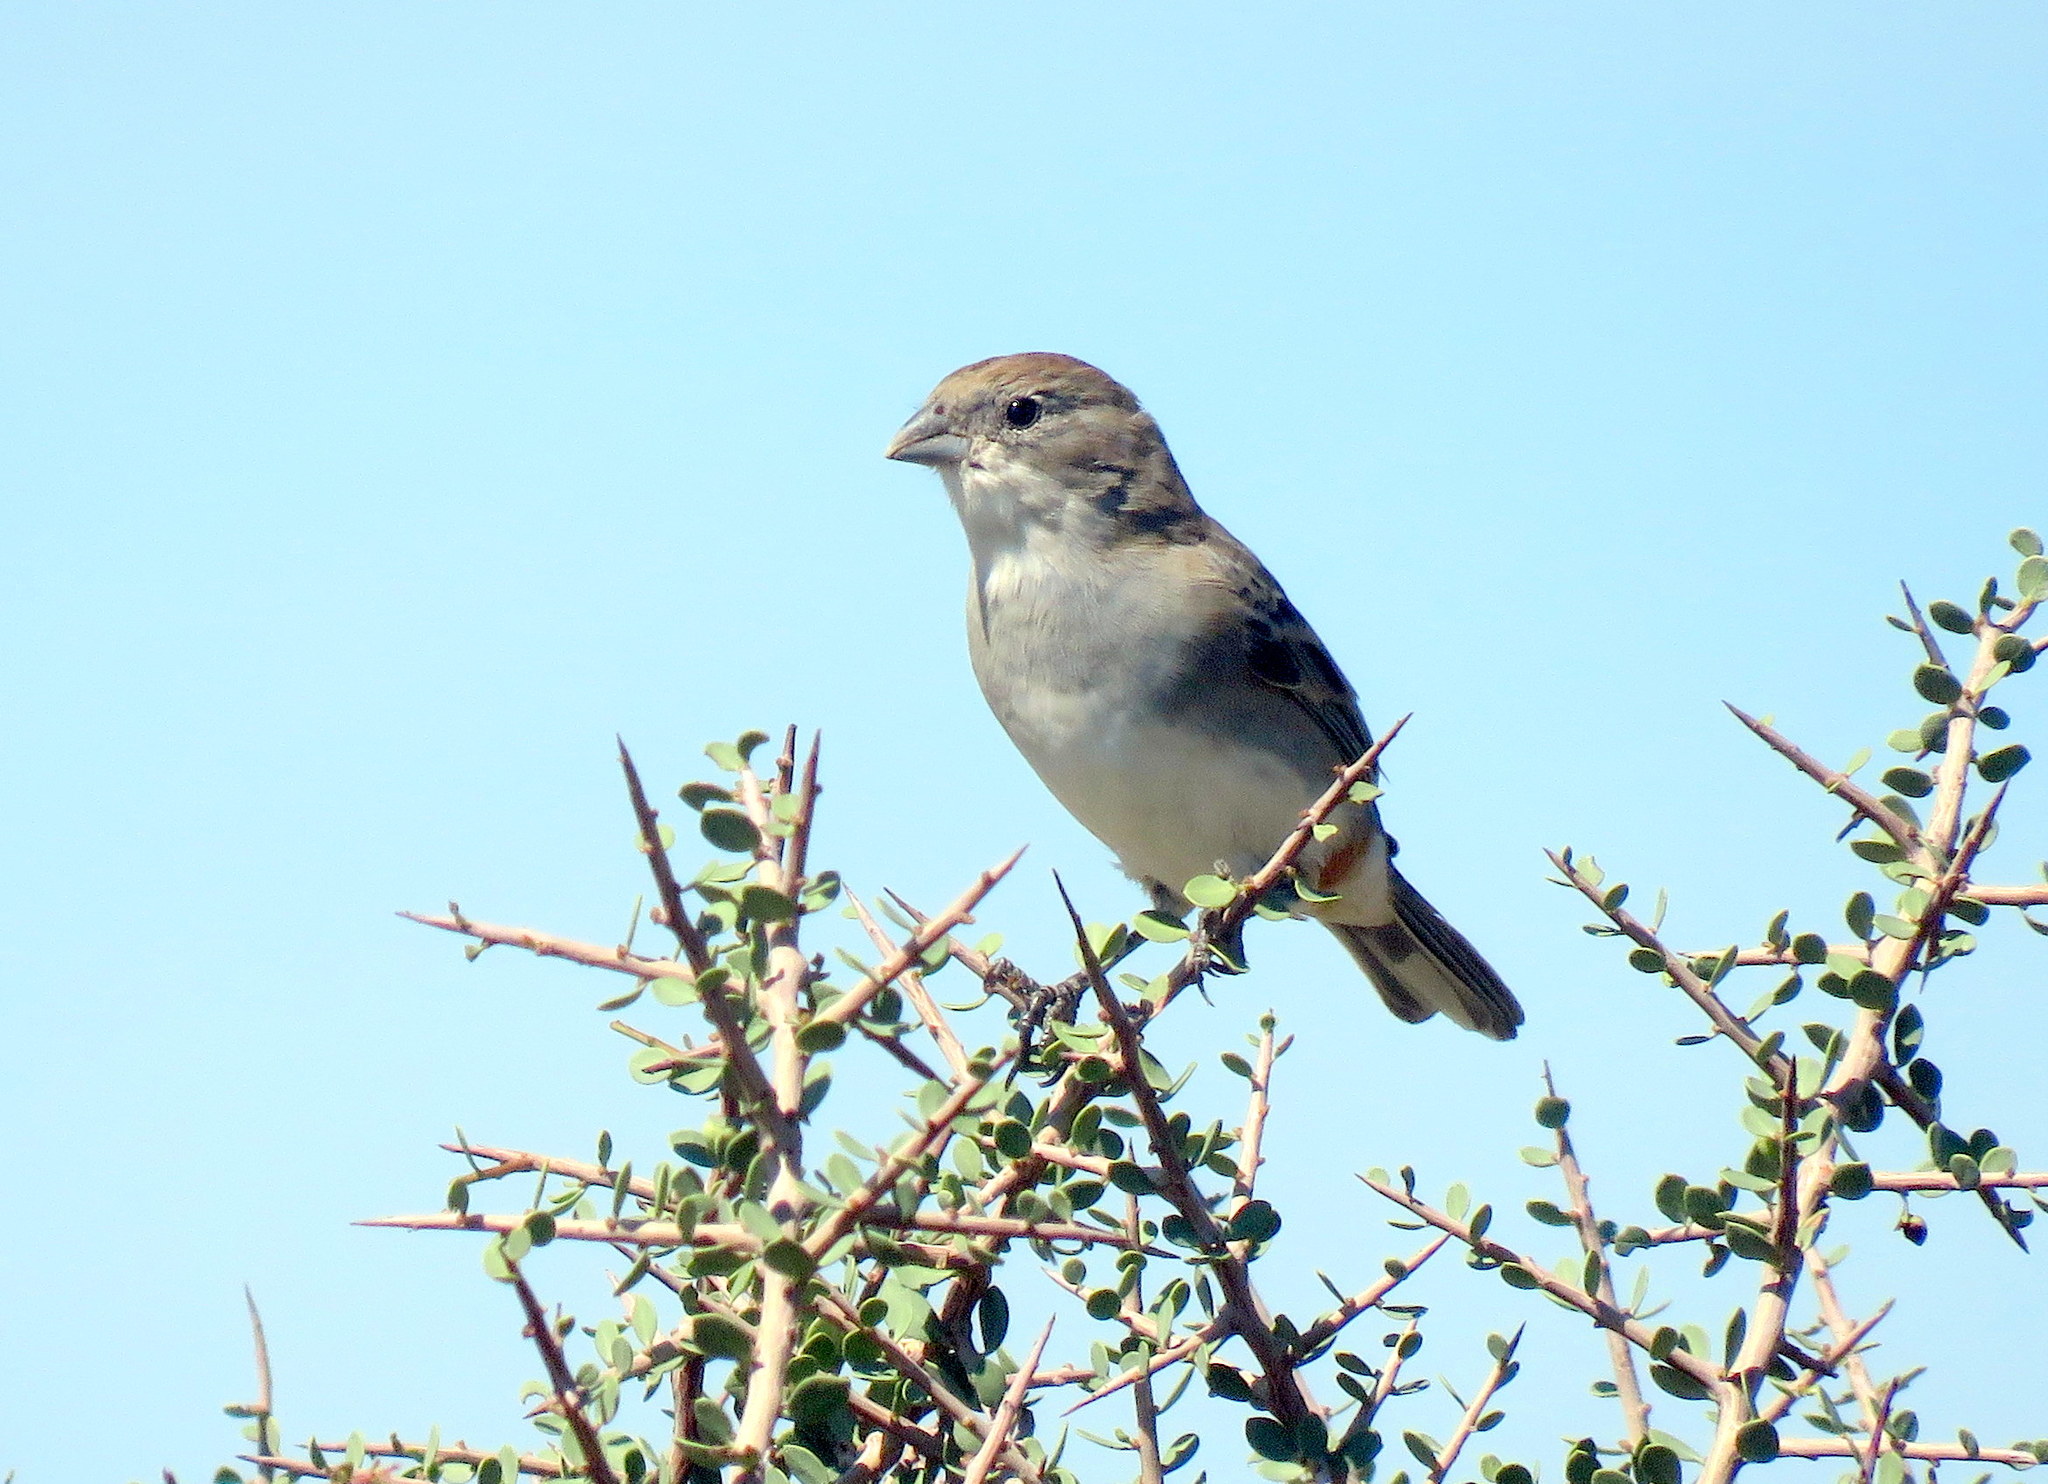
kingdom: Animalia
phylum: Chordata
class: Aves
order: Passeriformes
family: Thraupidae
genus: Diuca
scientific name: Diuca diuca
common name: Common diuca finch
